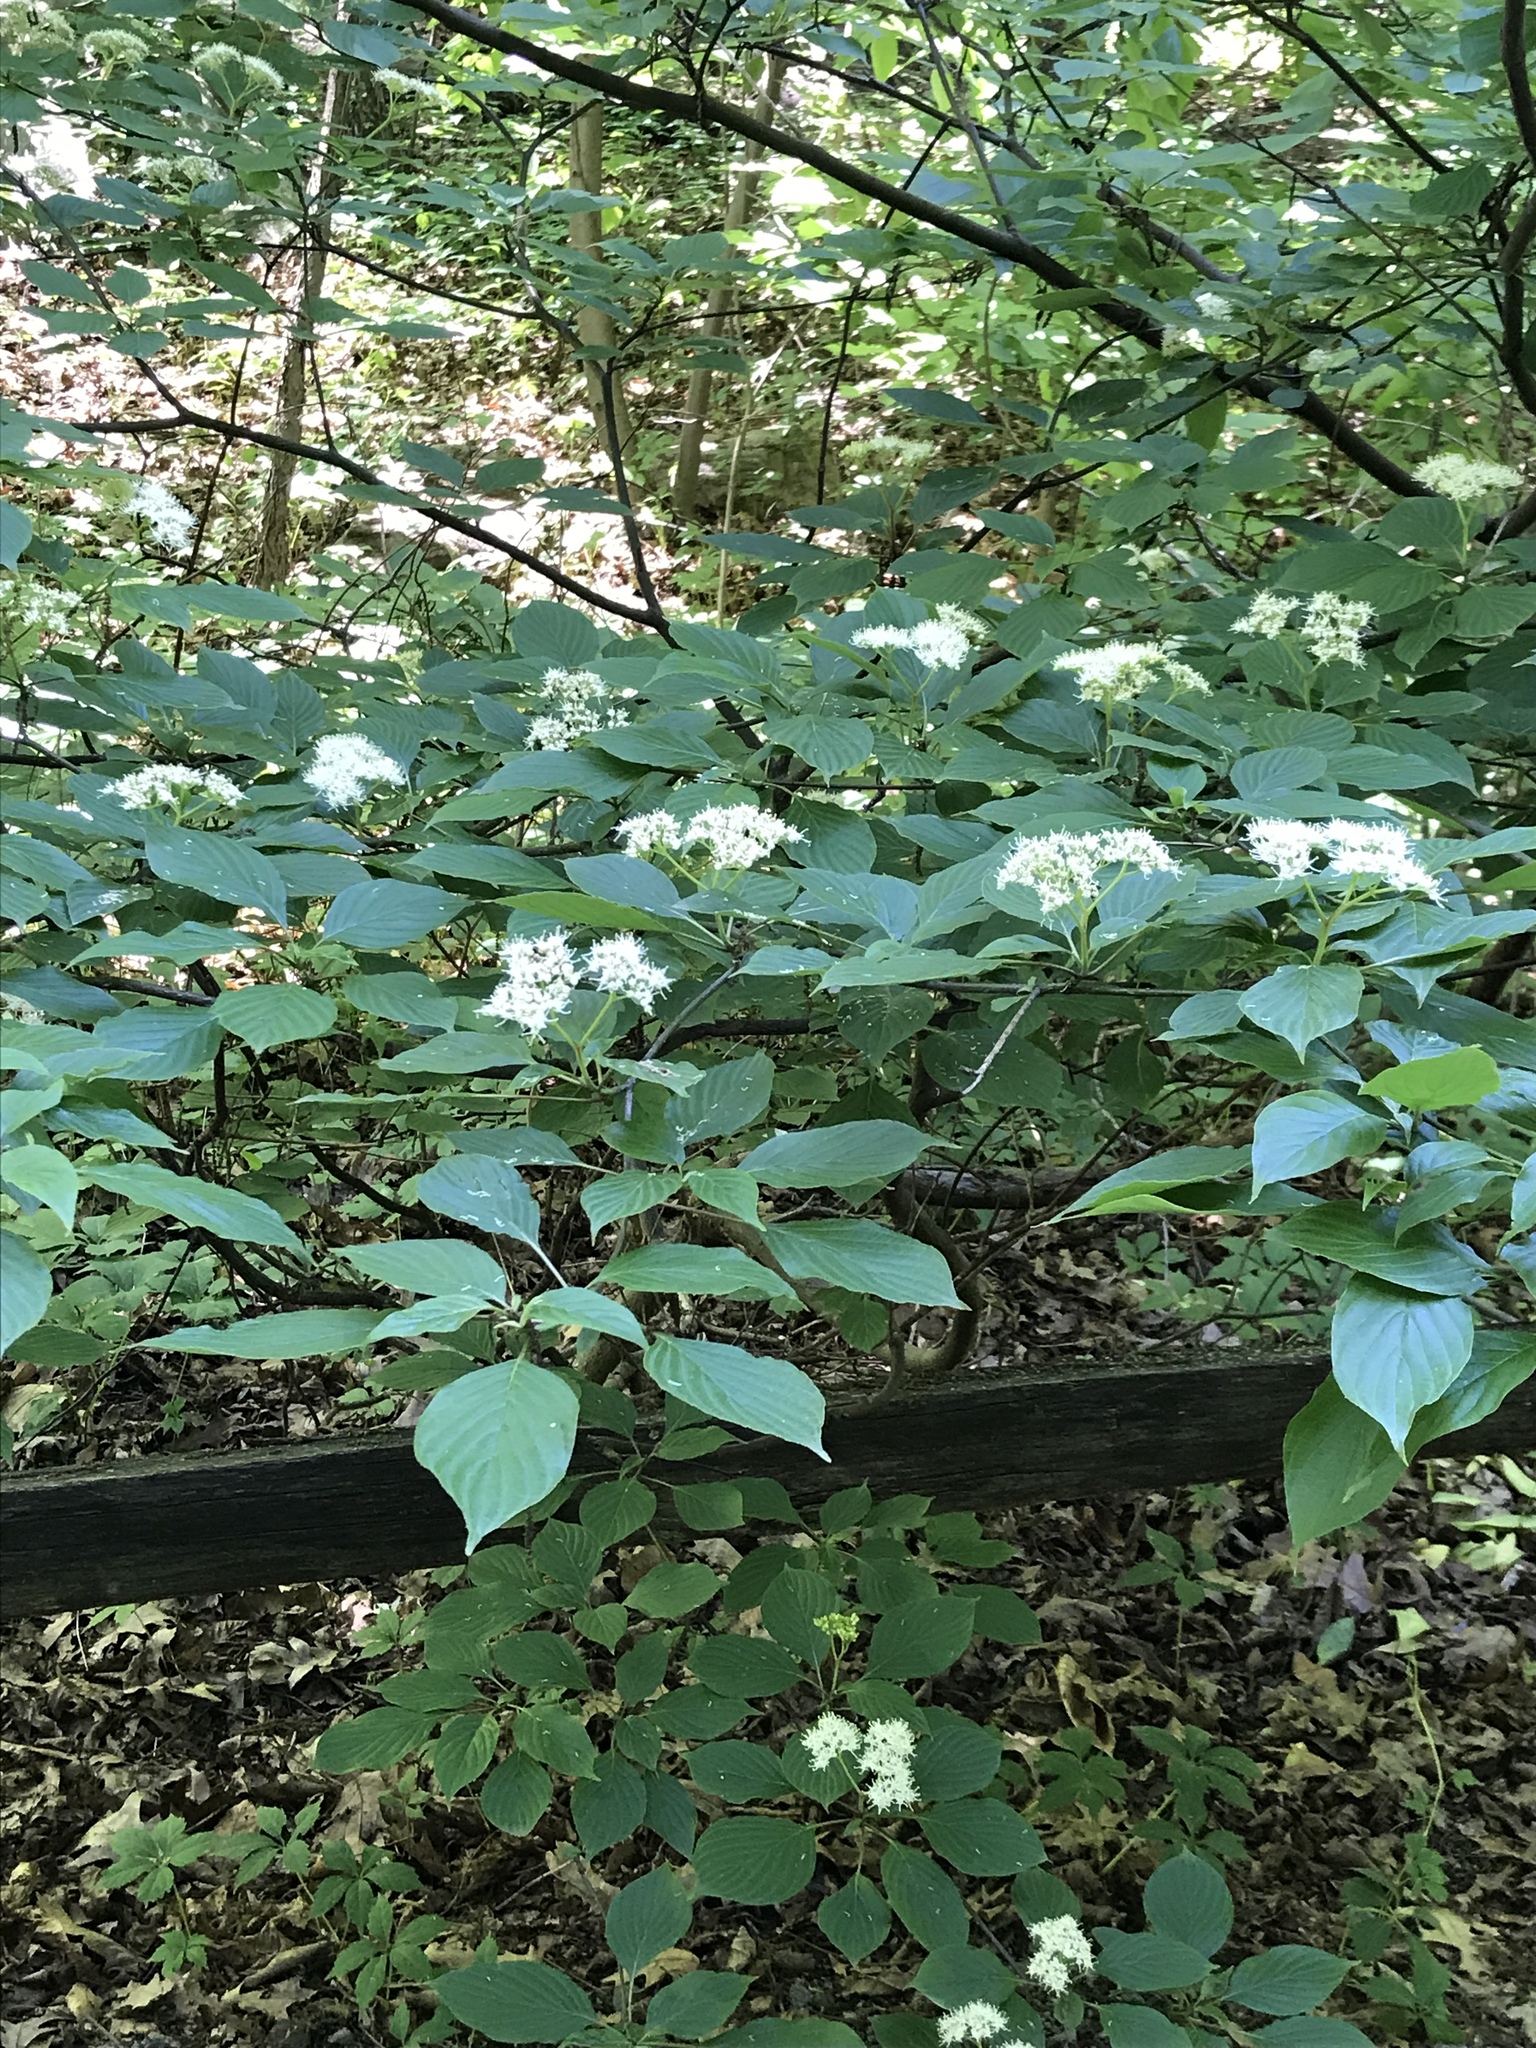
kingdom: Plantae
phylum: Tracheophyta
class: Magnoliopsida
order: Cornales
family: Cornaceae
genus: Cornus
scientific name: Cornus alternifolia
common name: Pagoda dogwood
